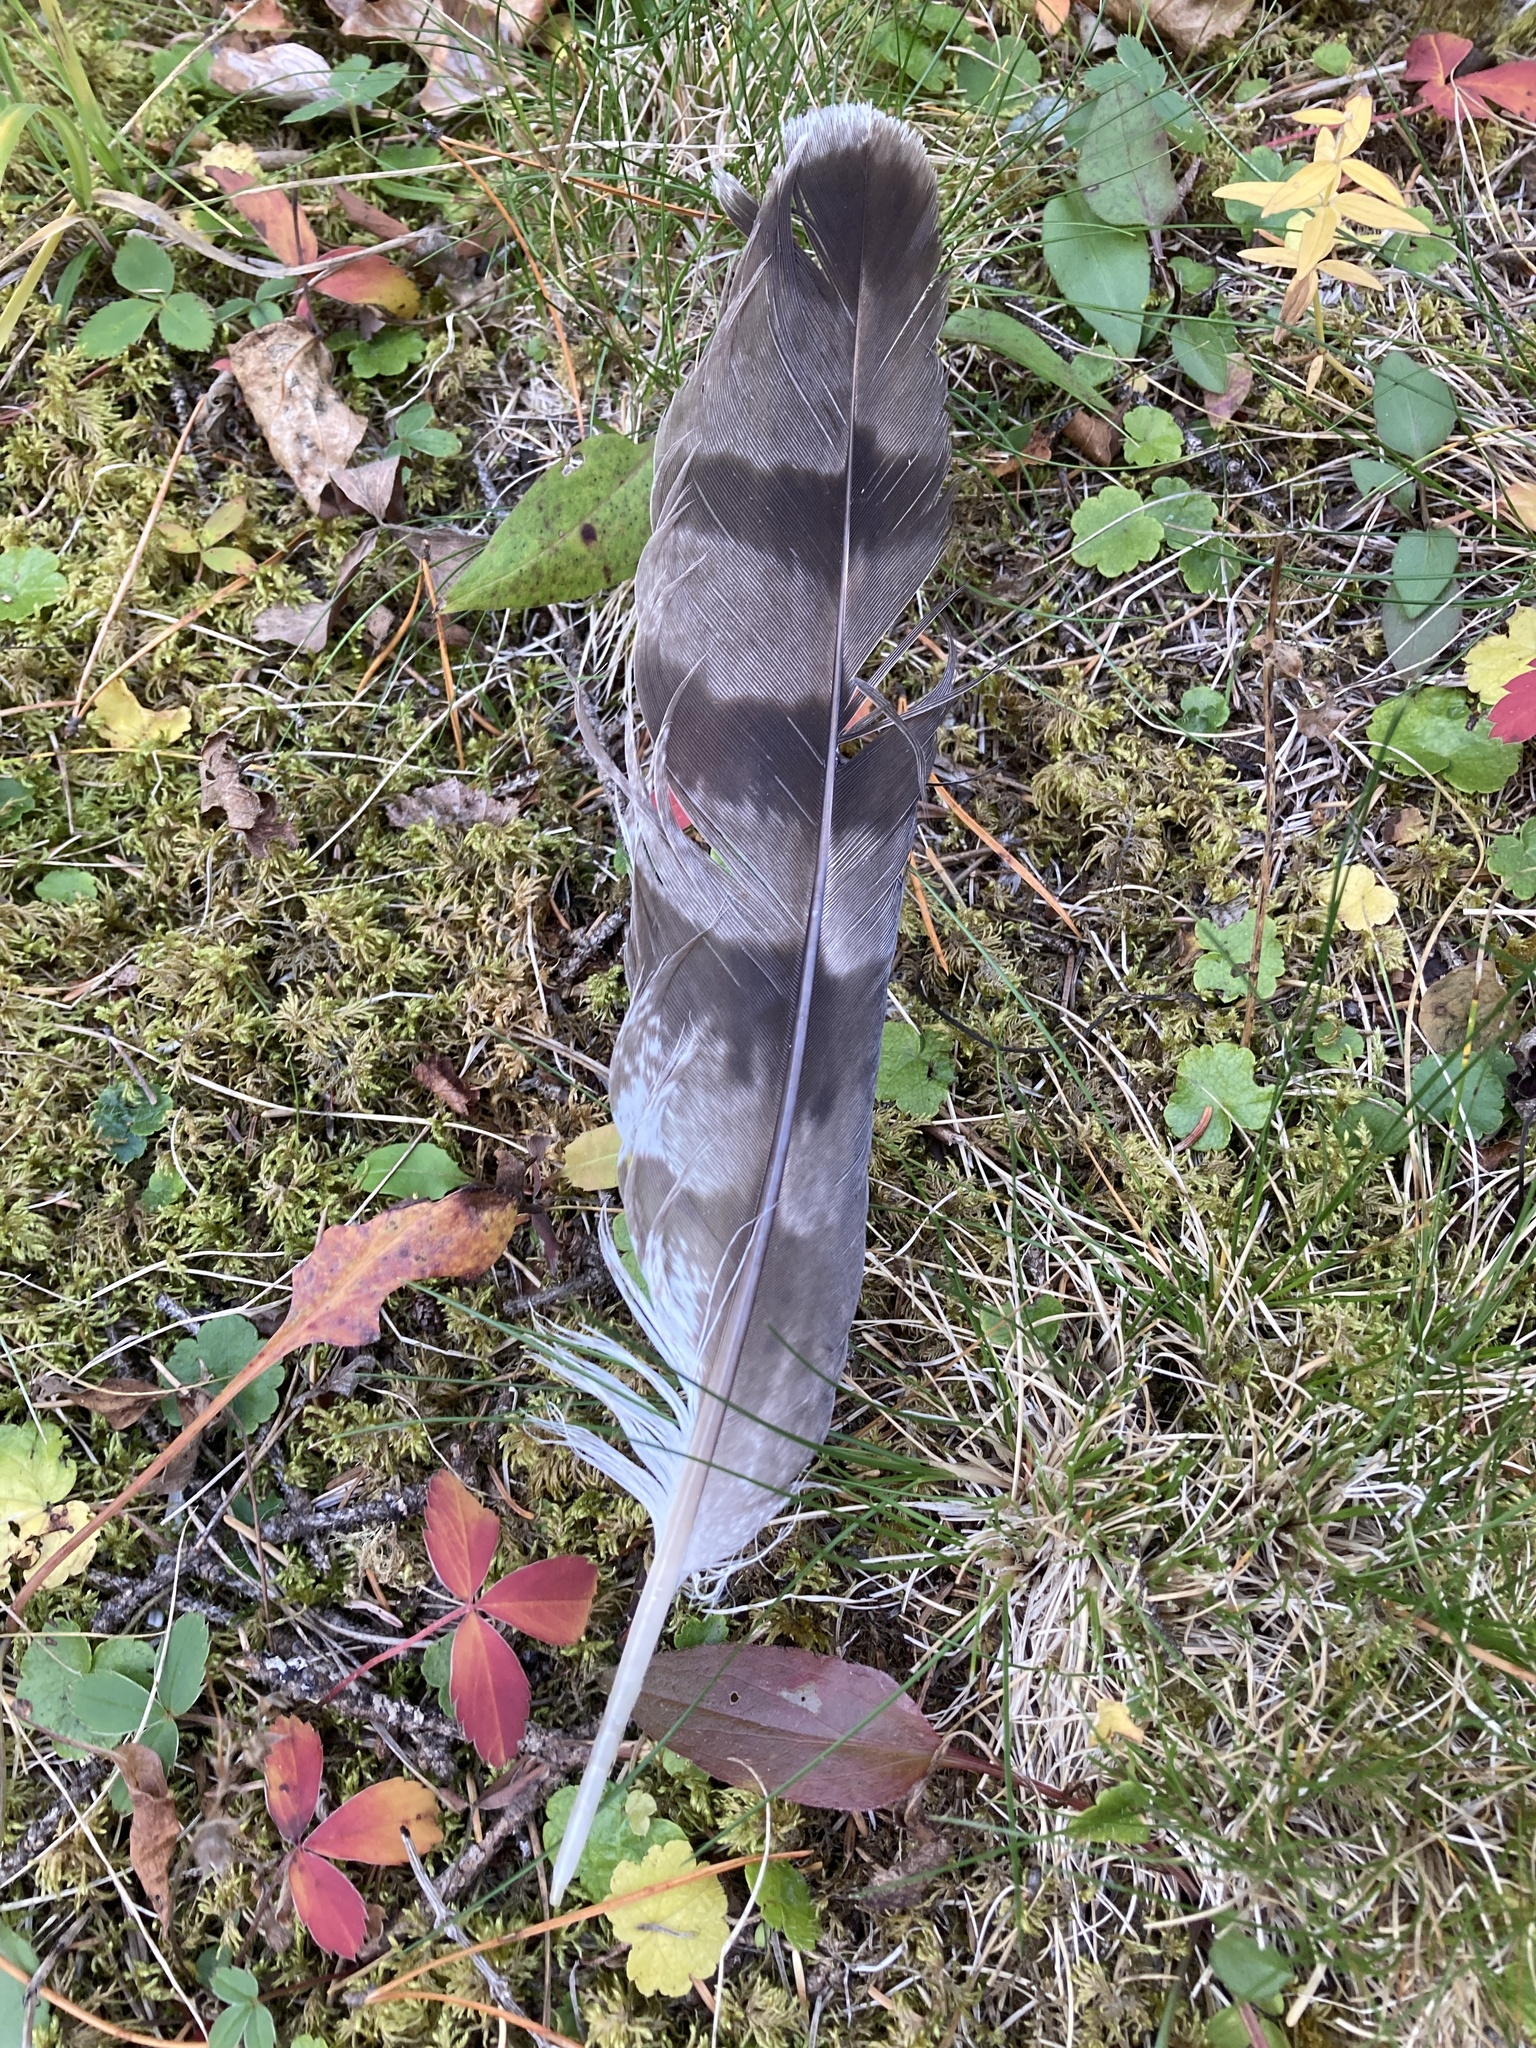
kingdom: Animalia
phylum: Chordata
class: Aves
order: Accipitriformes
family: Accipitridae
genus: Accipiter
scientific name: Accipiter gentilis
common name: Northern goshawk
